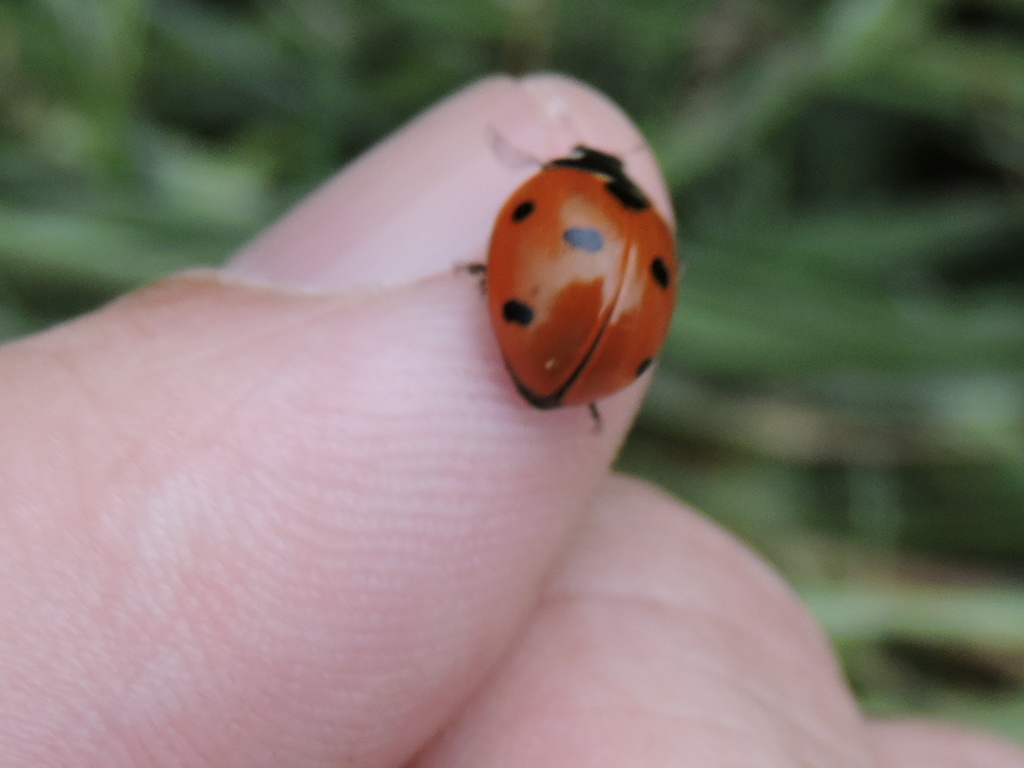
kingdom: Animalia
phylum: Arthropoda
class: Insecta
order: Coleoptera
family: Coccinellidae
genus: Coccinella
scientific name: Coccinella septempunctata
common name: Sevenspotted lady beetle
